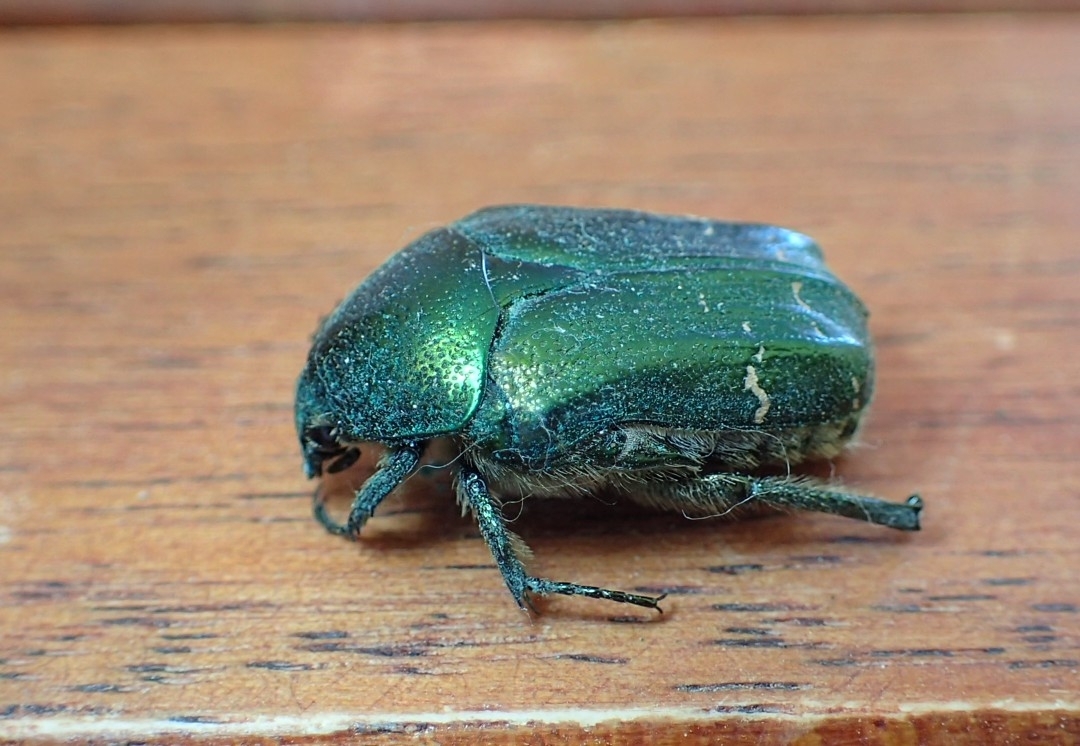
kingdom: Animalia
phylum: Arthropoda
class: Insecta
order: Coleoptera
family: Scarabaeidae
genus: Cetonia
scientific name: Cetonia
